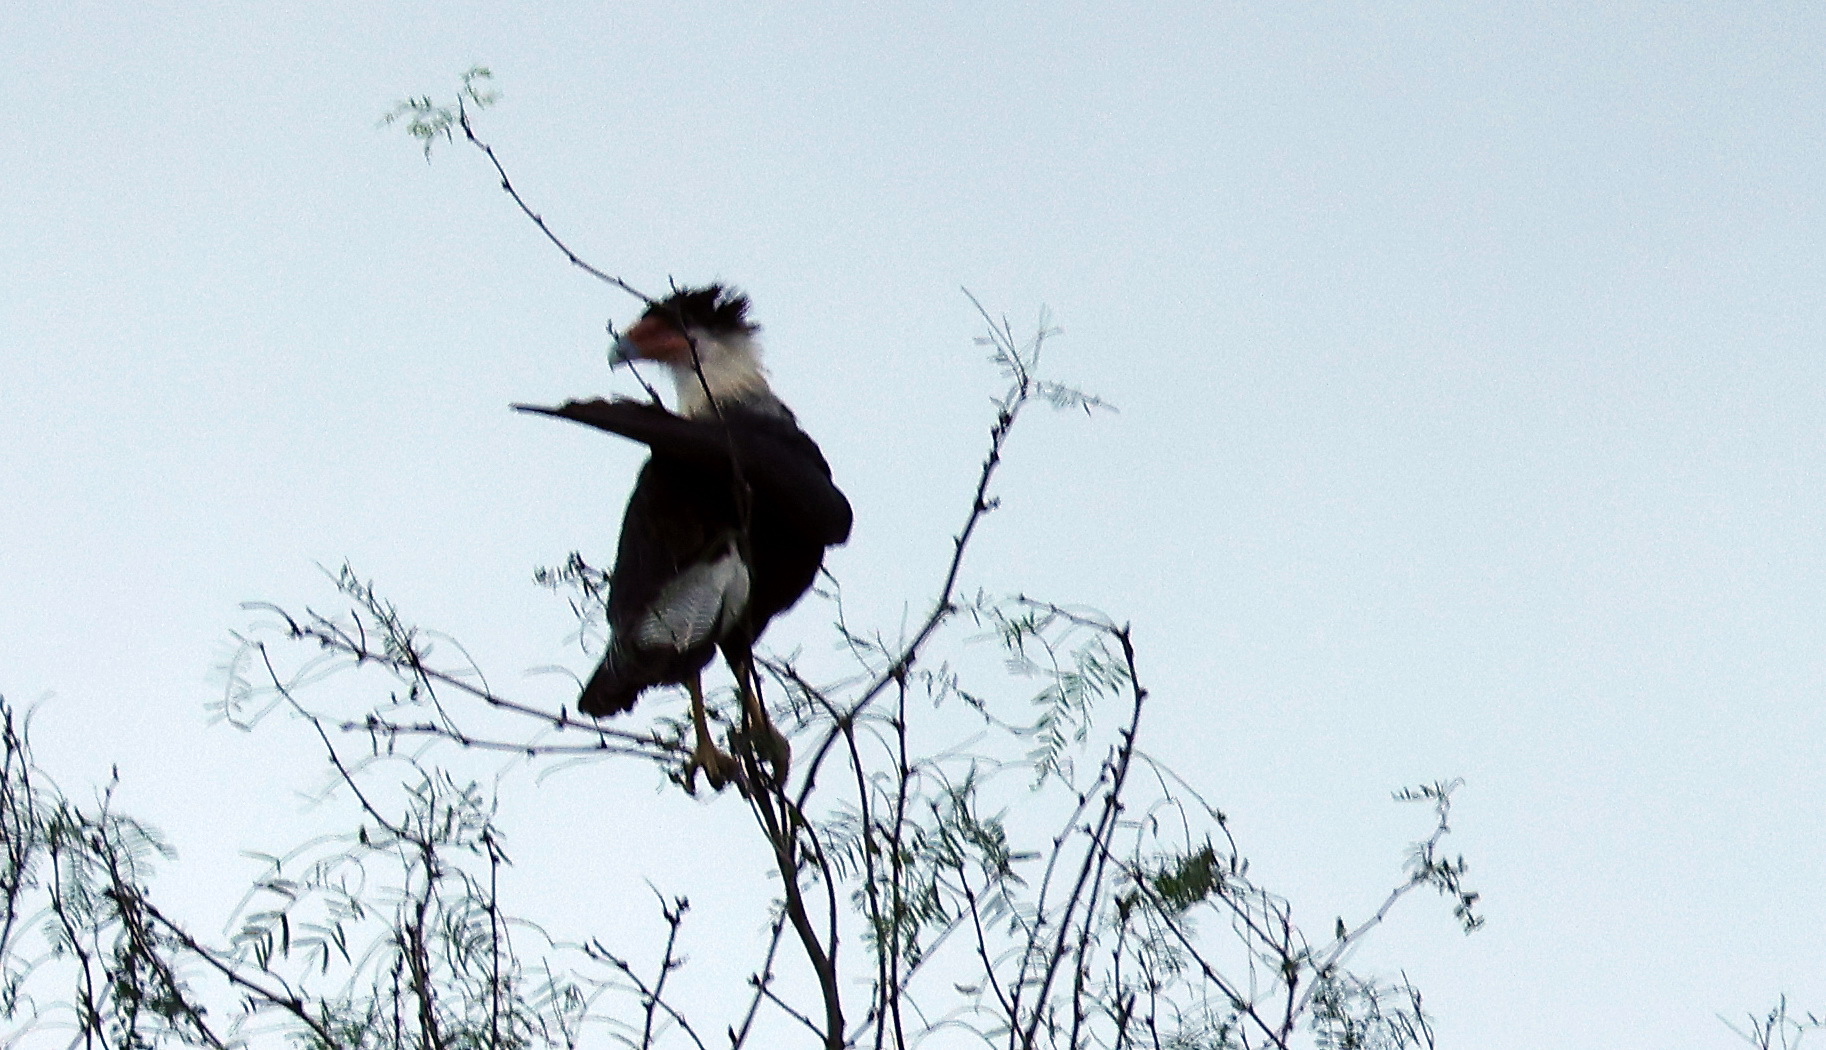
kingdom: Animalia
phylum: Chordata
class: Aves
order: Falconiformes
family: Falconidae
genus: Caracara
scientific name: Caracara plancus
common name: Southern caracara
